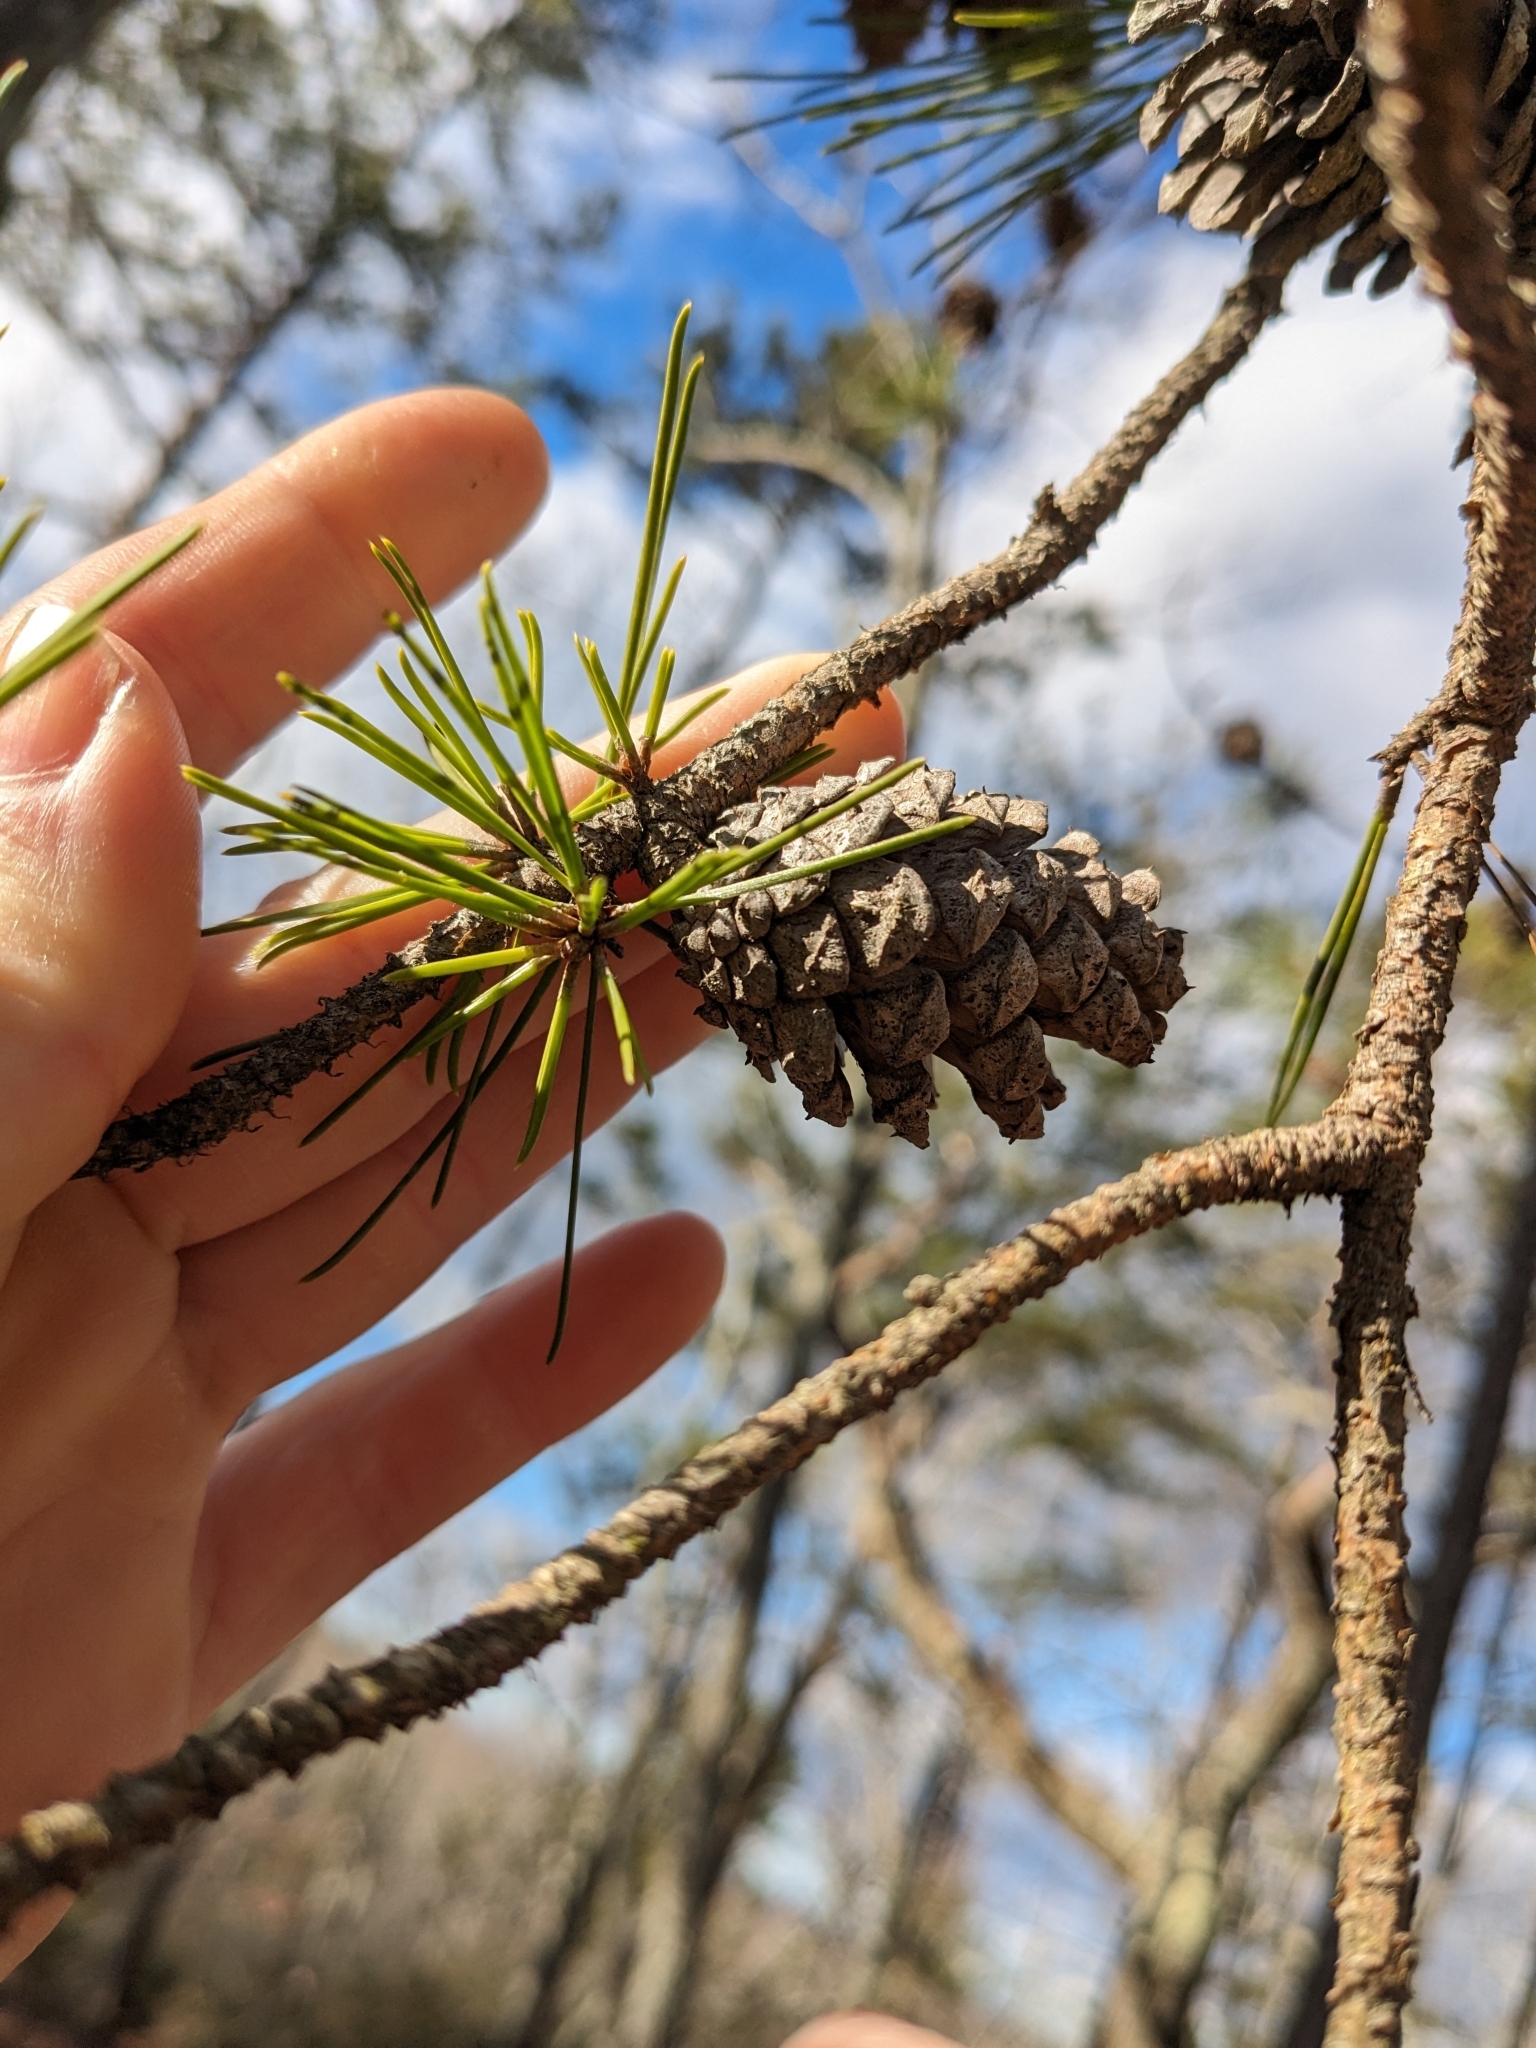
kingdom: Plantae
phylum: Tracheophyta
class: Pinopsida
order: Pinales
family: Pinaceae
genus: Pinus
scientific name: Pinus virginiana
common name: Scrub pine
